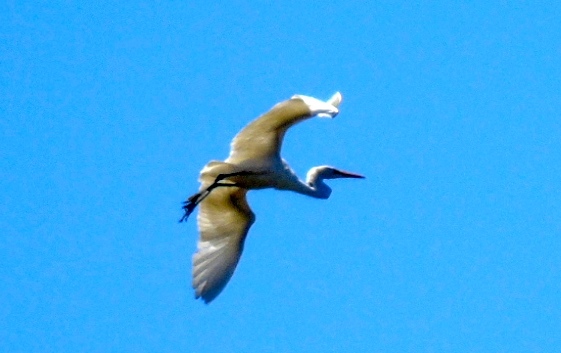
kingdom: Animalia
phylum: Chordata
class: Aves
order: Pelecaniformes
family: Ardeidae
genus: Ardea
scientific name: Ardea alba
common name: Great egret
